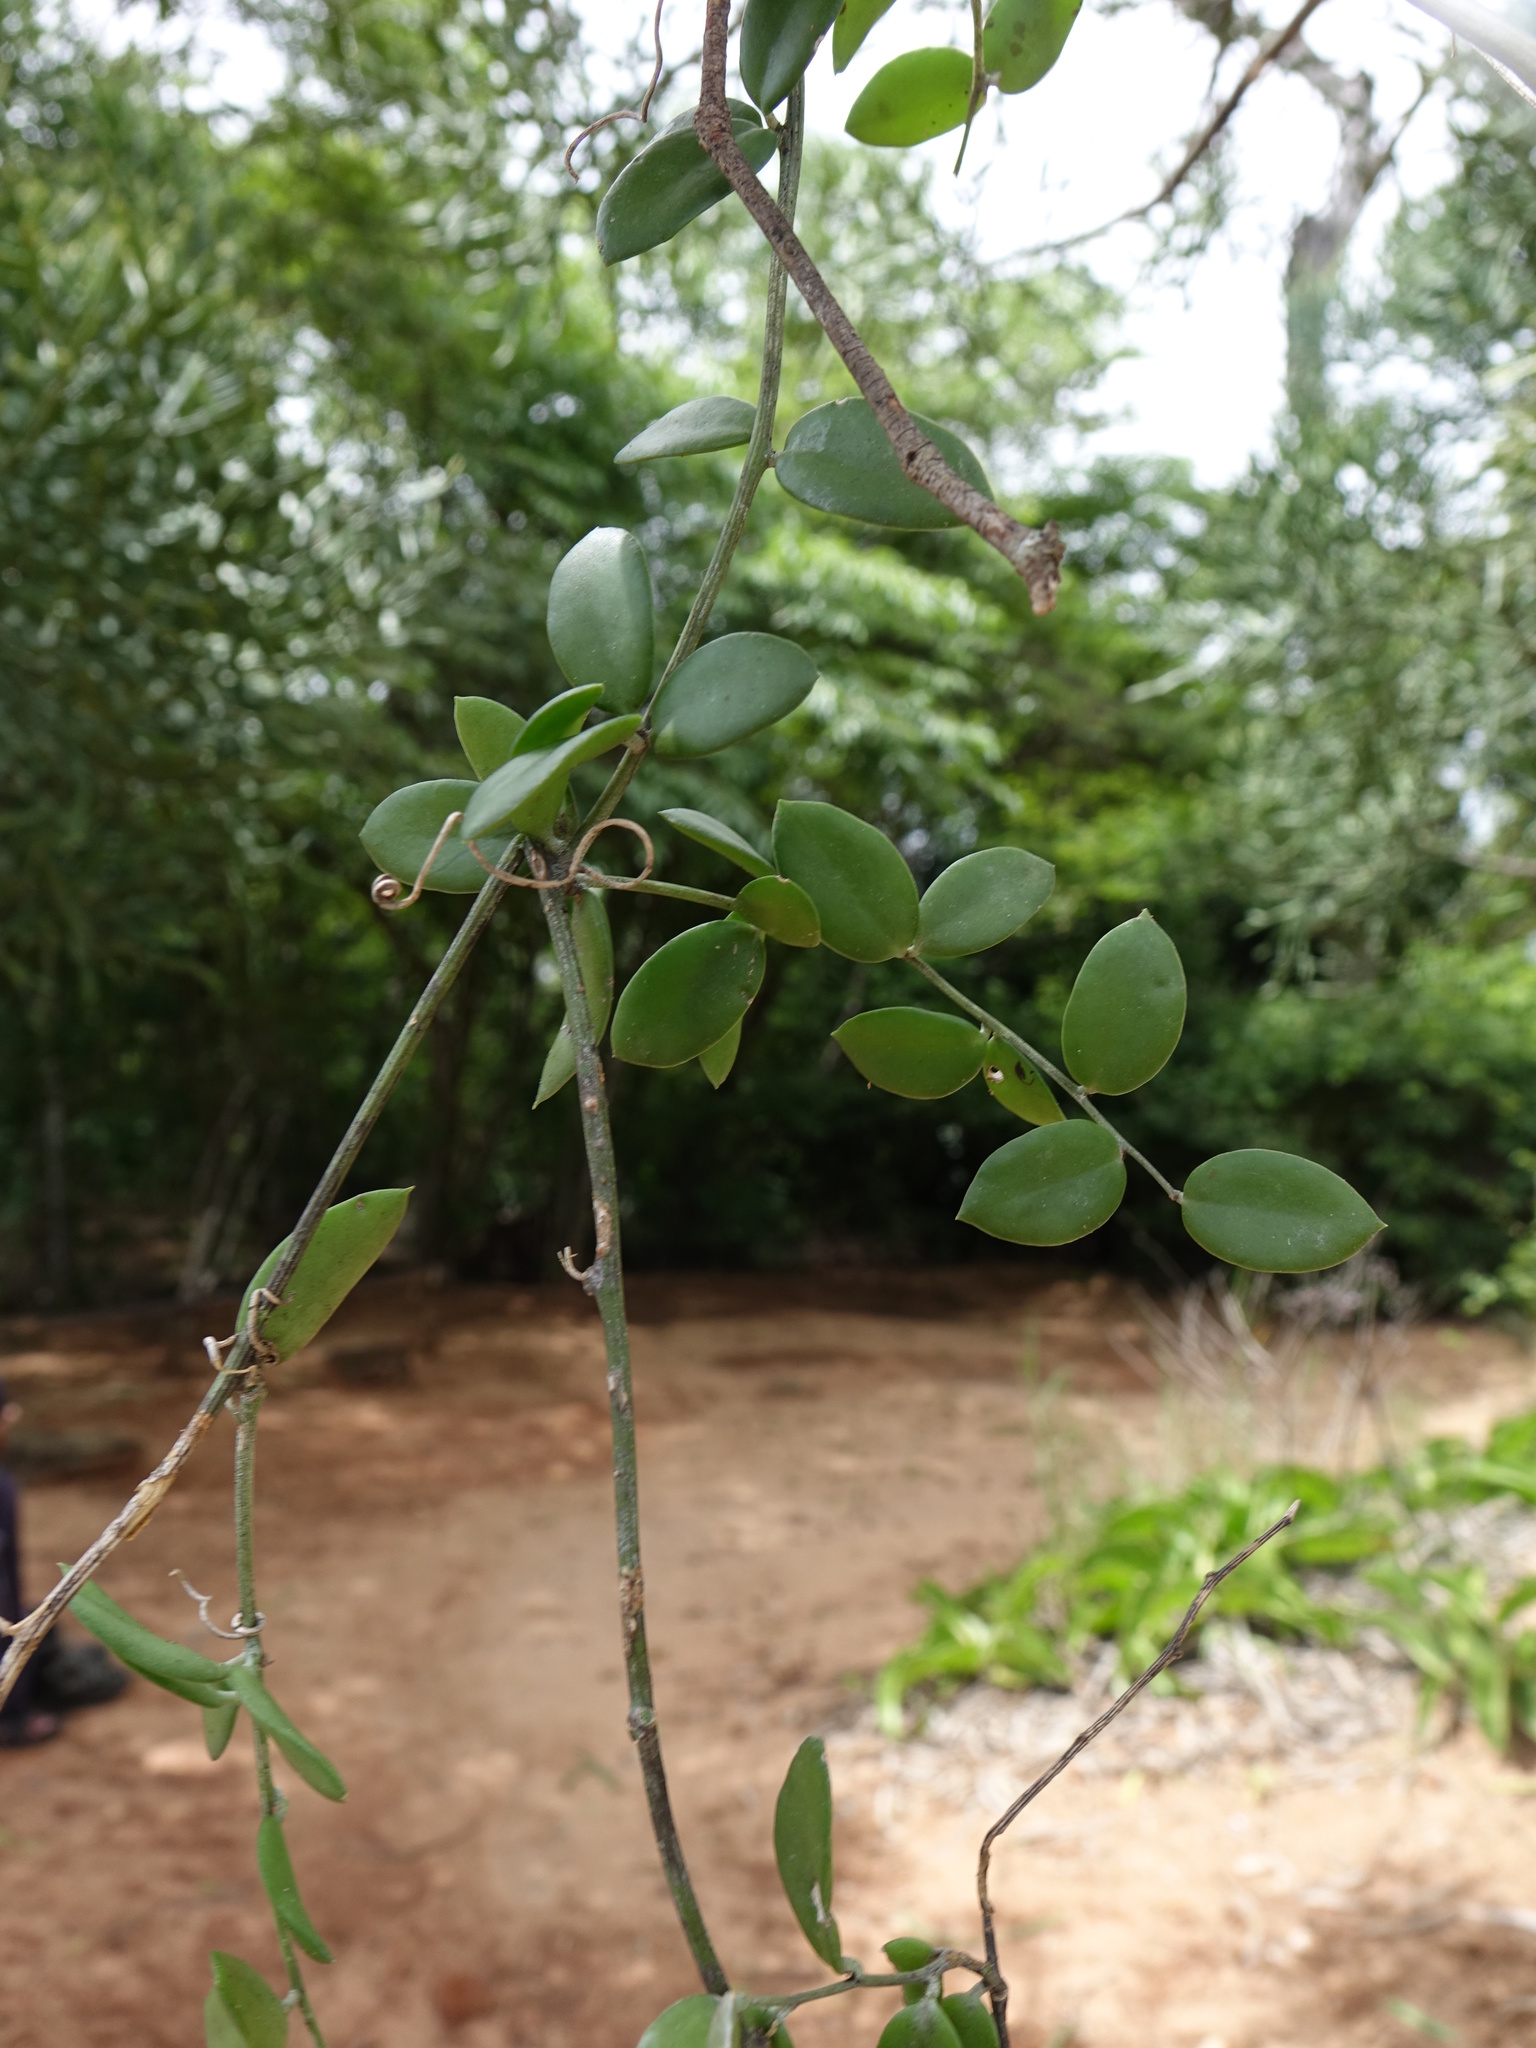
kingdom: Plantae
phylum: Tracheophyta
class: Magnoliopsida
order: Cucurbitales
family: Cucurbitaceae
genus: Xerosicyos
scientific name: Xerosicyos decaryi
